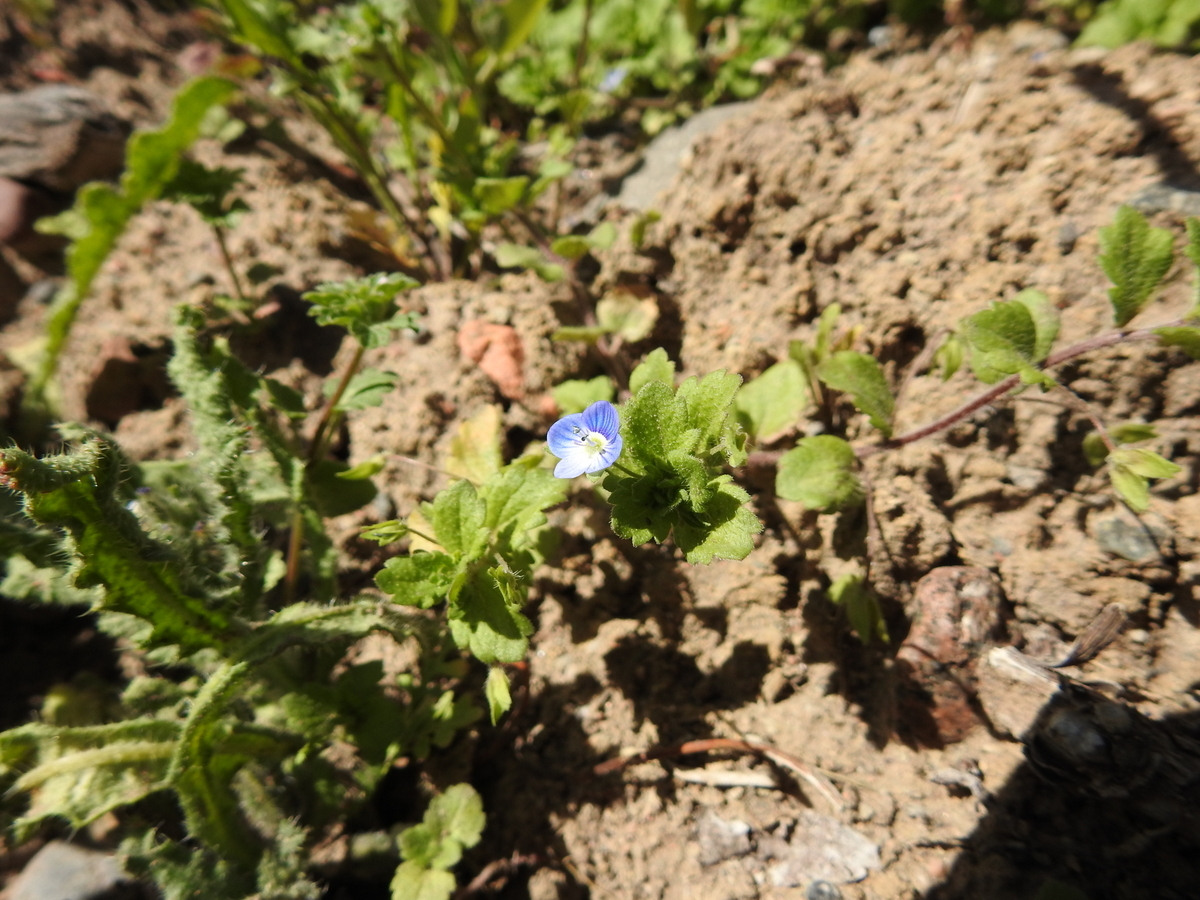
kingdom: Plantae
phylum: Tracheophyta
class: Magnoliopsida
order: Lamiales
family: Plantaginaceae
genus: Veronica
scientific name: Veronica persica
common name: Common field-speedwell
